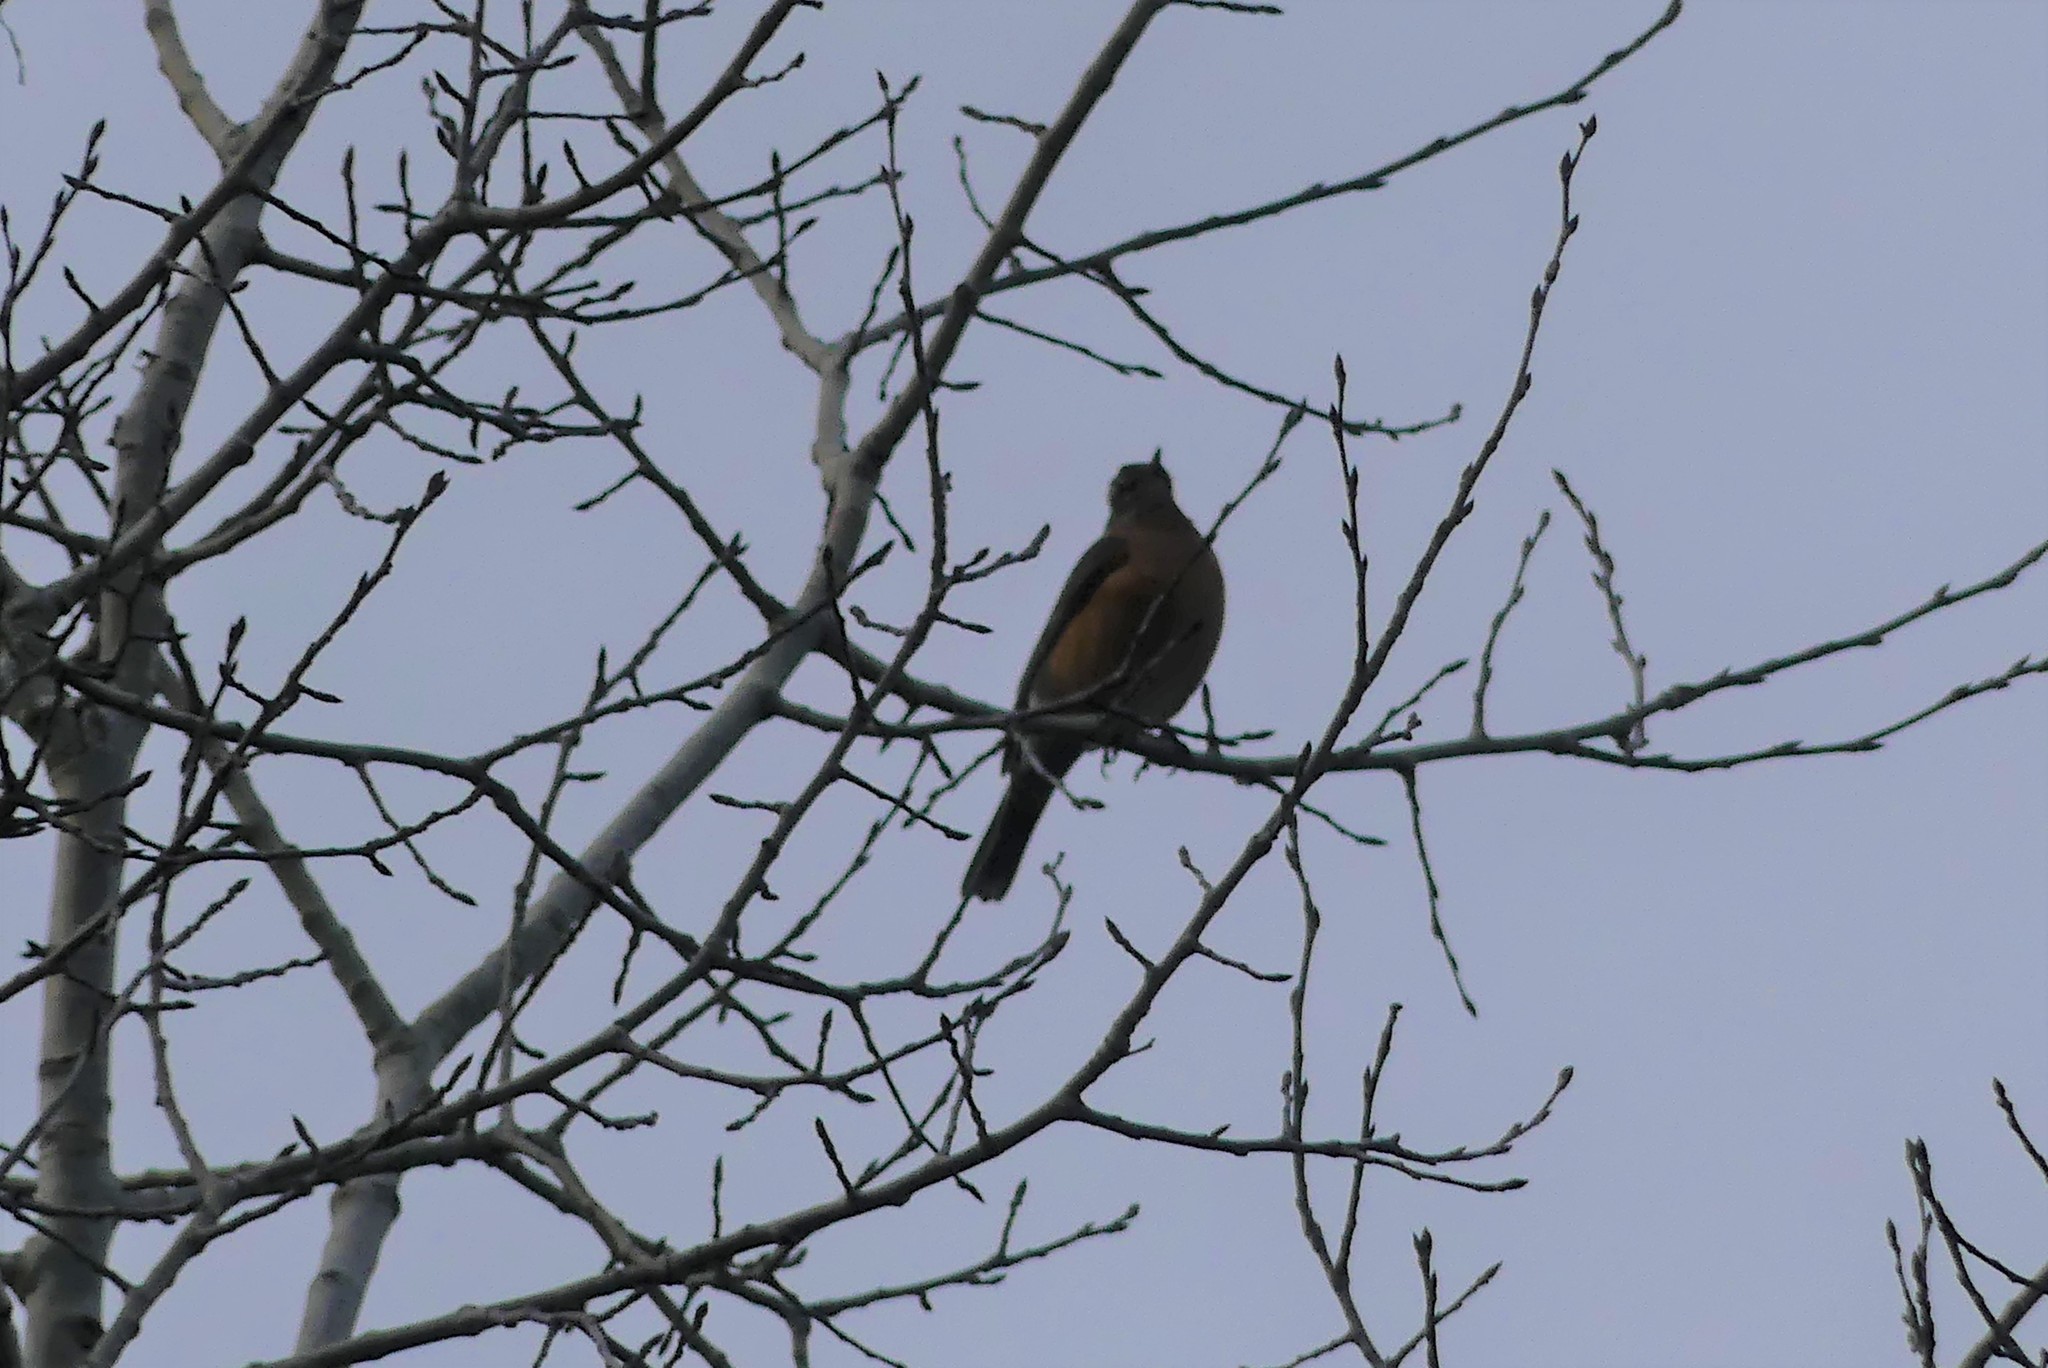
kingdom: Animalia
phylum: Chordata
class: Aves
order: Passeriformes
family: Turdidae
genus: Turdus
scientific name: Turdus migratorius
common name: American robin
